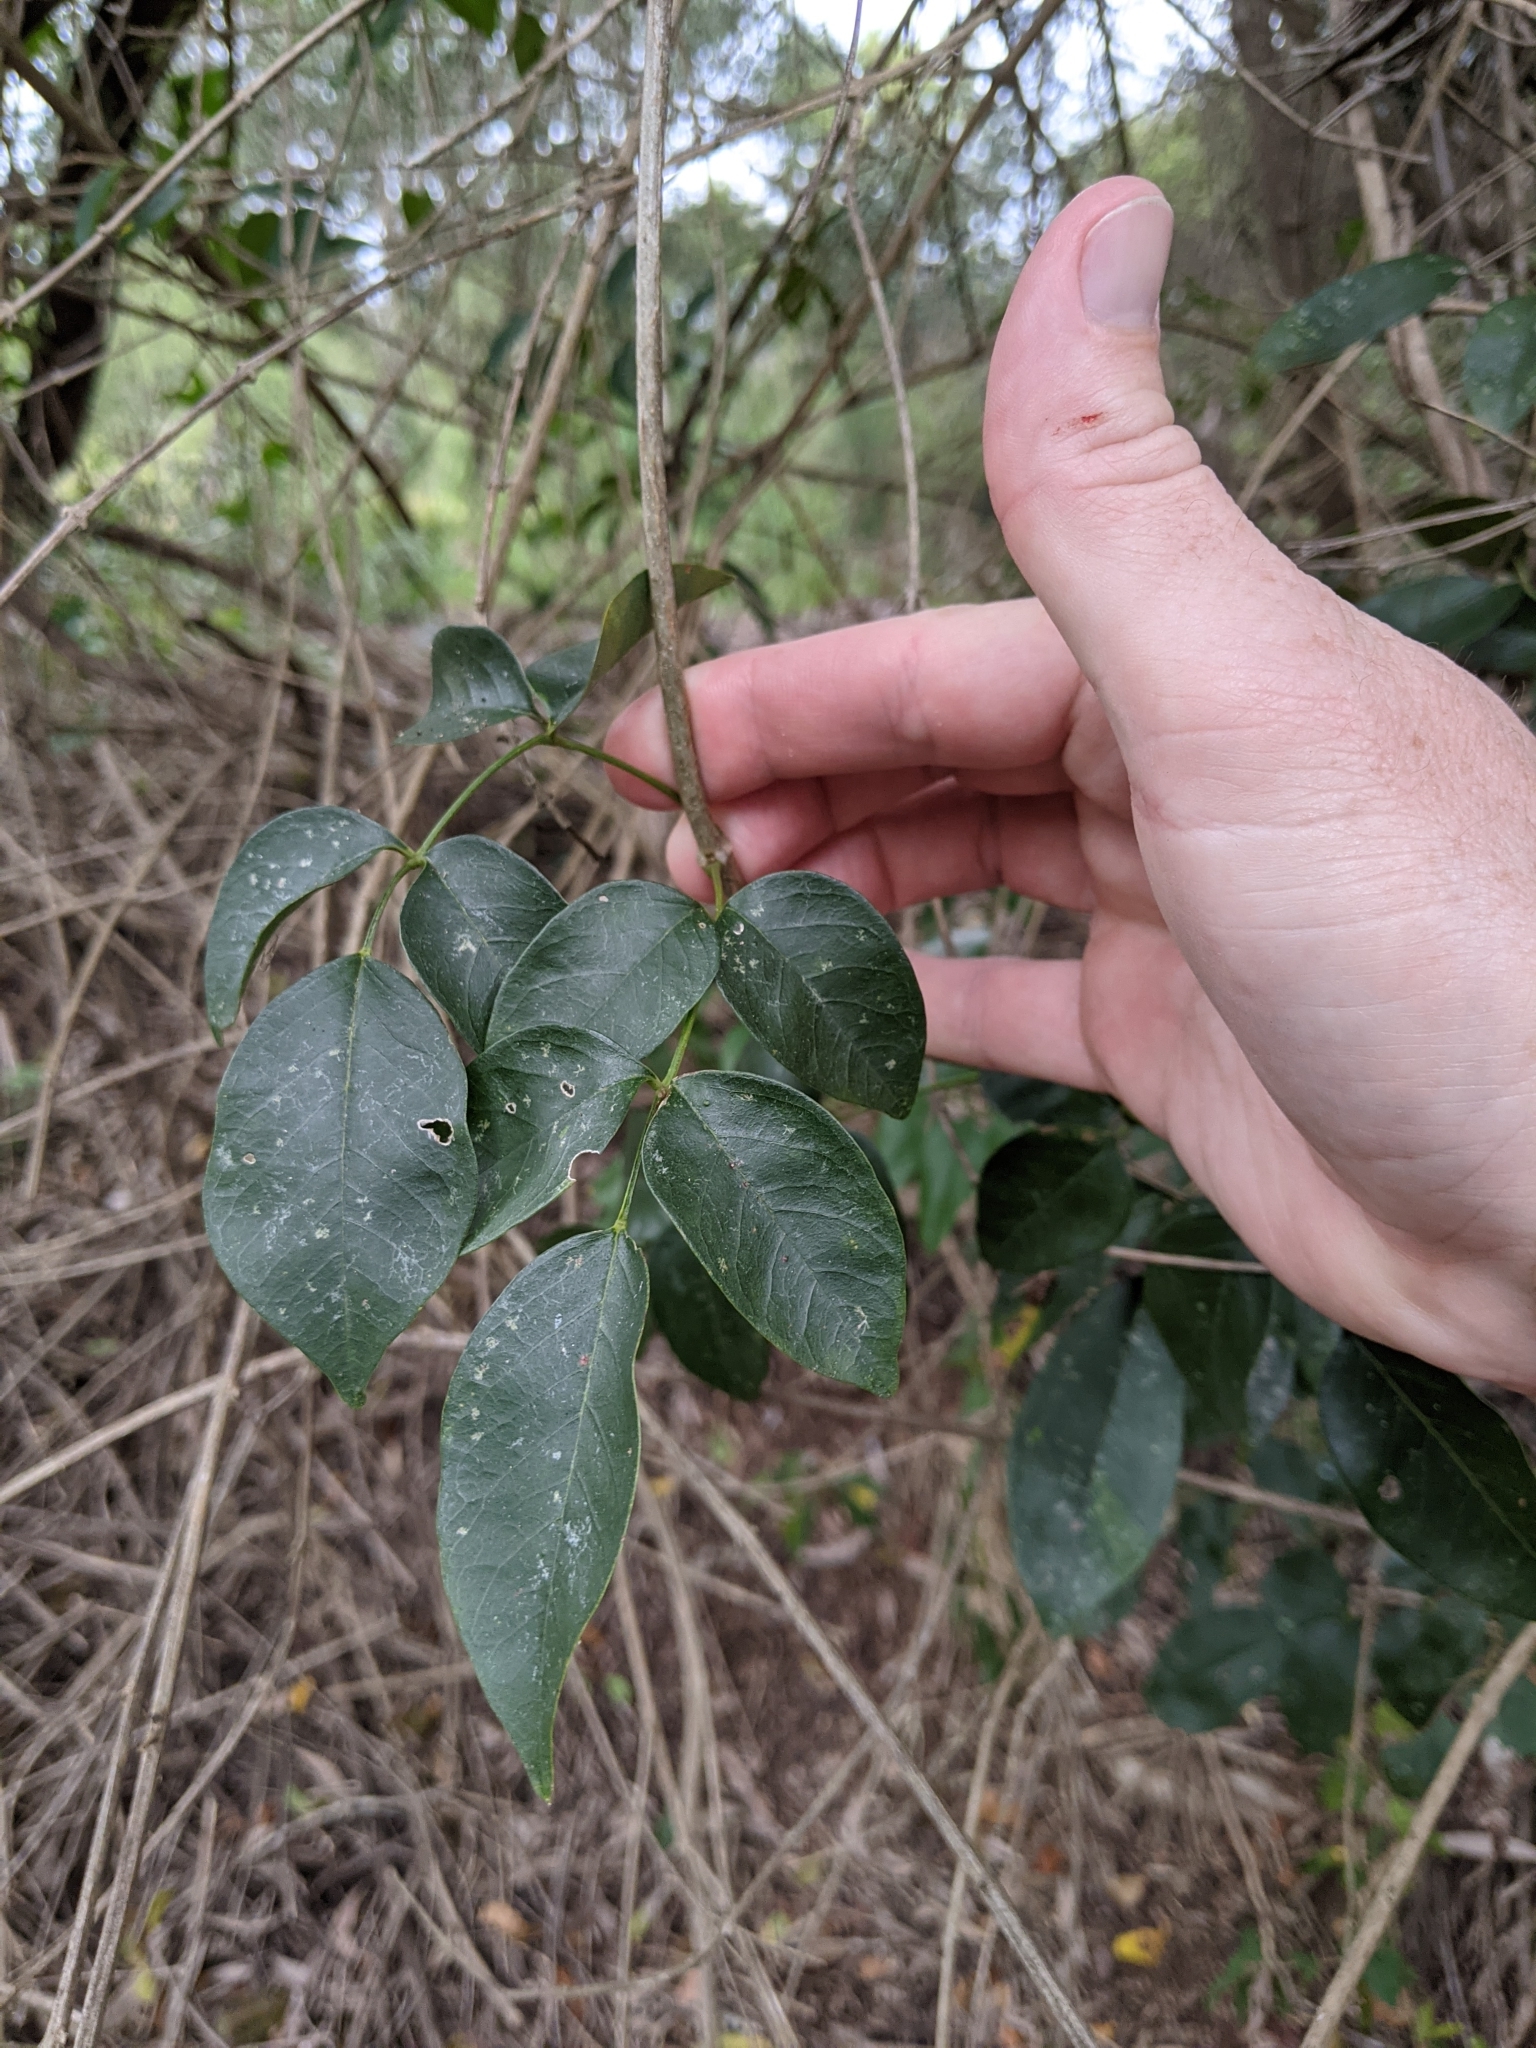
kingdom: Plantae
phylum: Tracheophyta
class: Magnoliopsida
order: Lamiales
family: Bignoniaceae
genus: Pandorea
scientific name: Pandorea pandorana
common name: Wonga-wonga-vine
